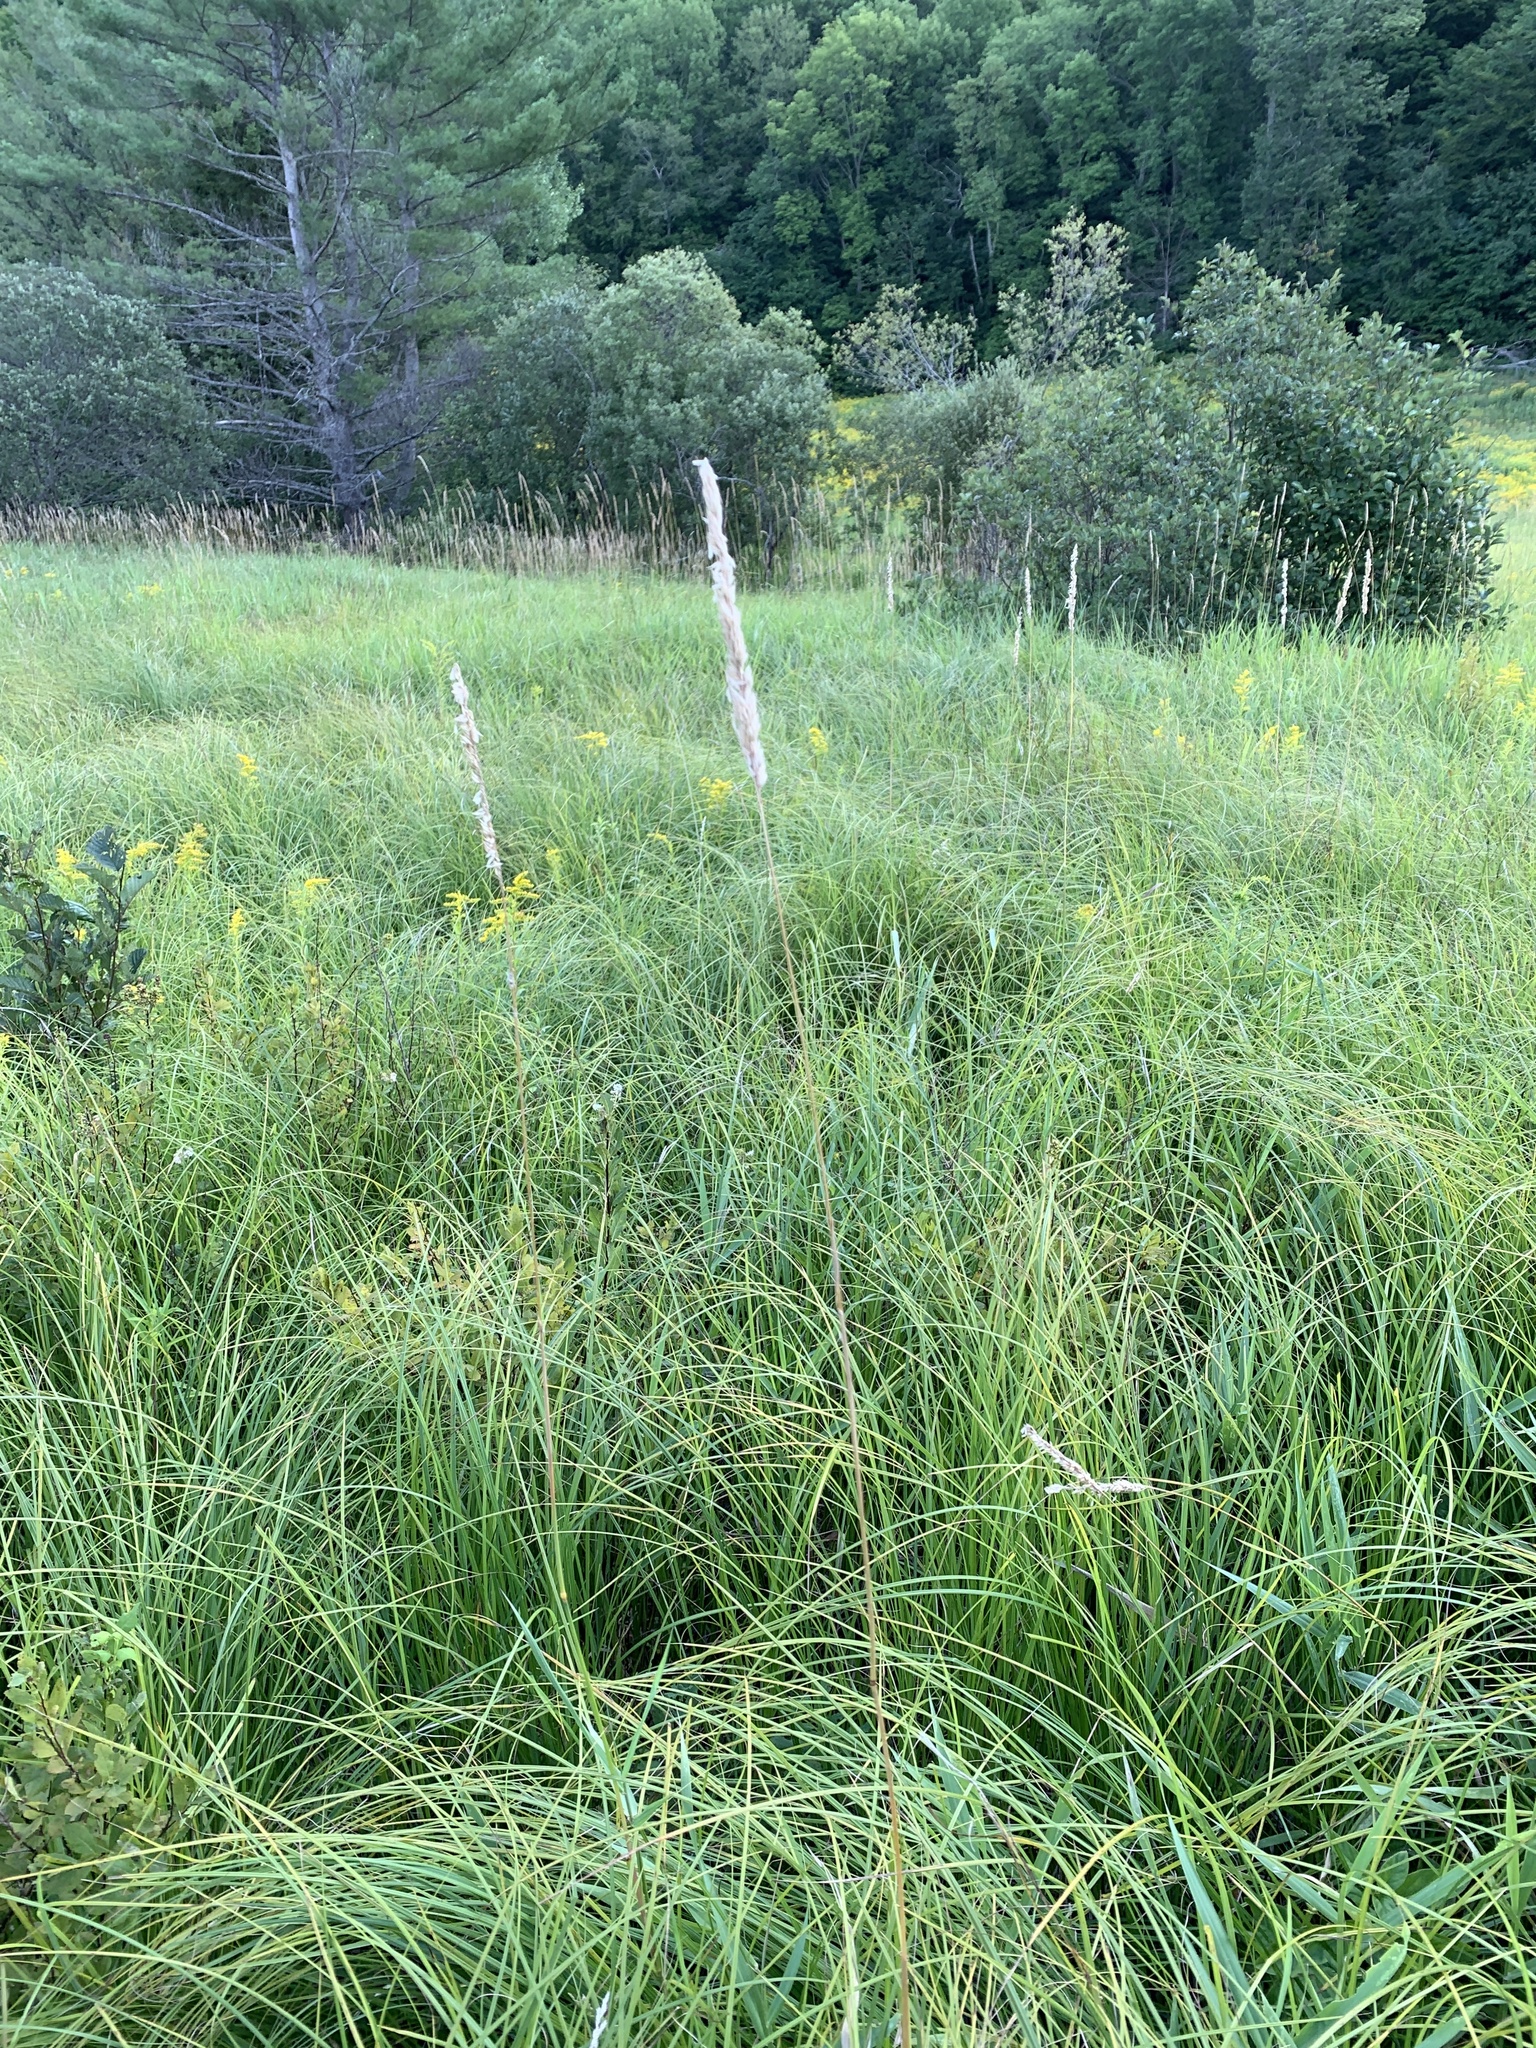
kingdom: Plantae
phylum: Tracheophyta
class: Liliopsida
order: Poales
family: Poaceae
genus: Phalaris
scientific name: Phalaris arundinacea
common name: Reed canary-grass
